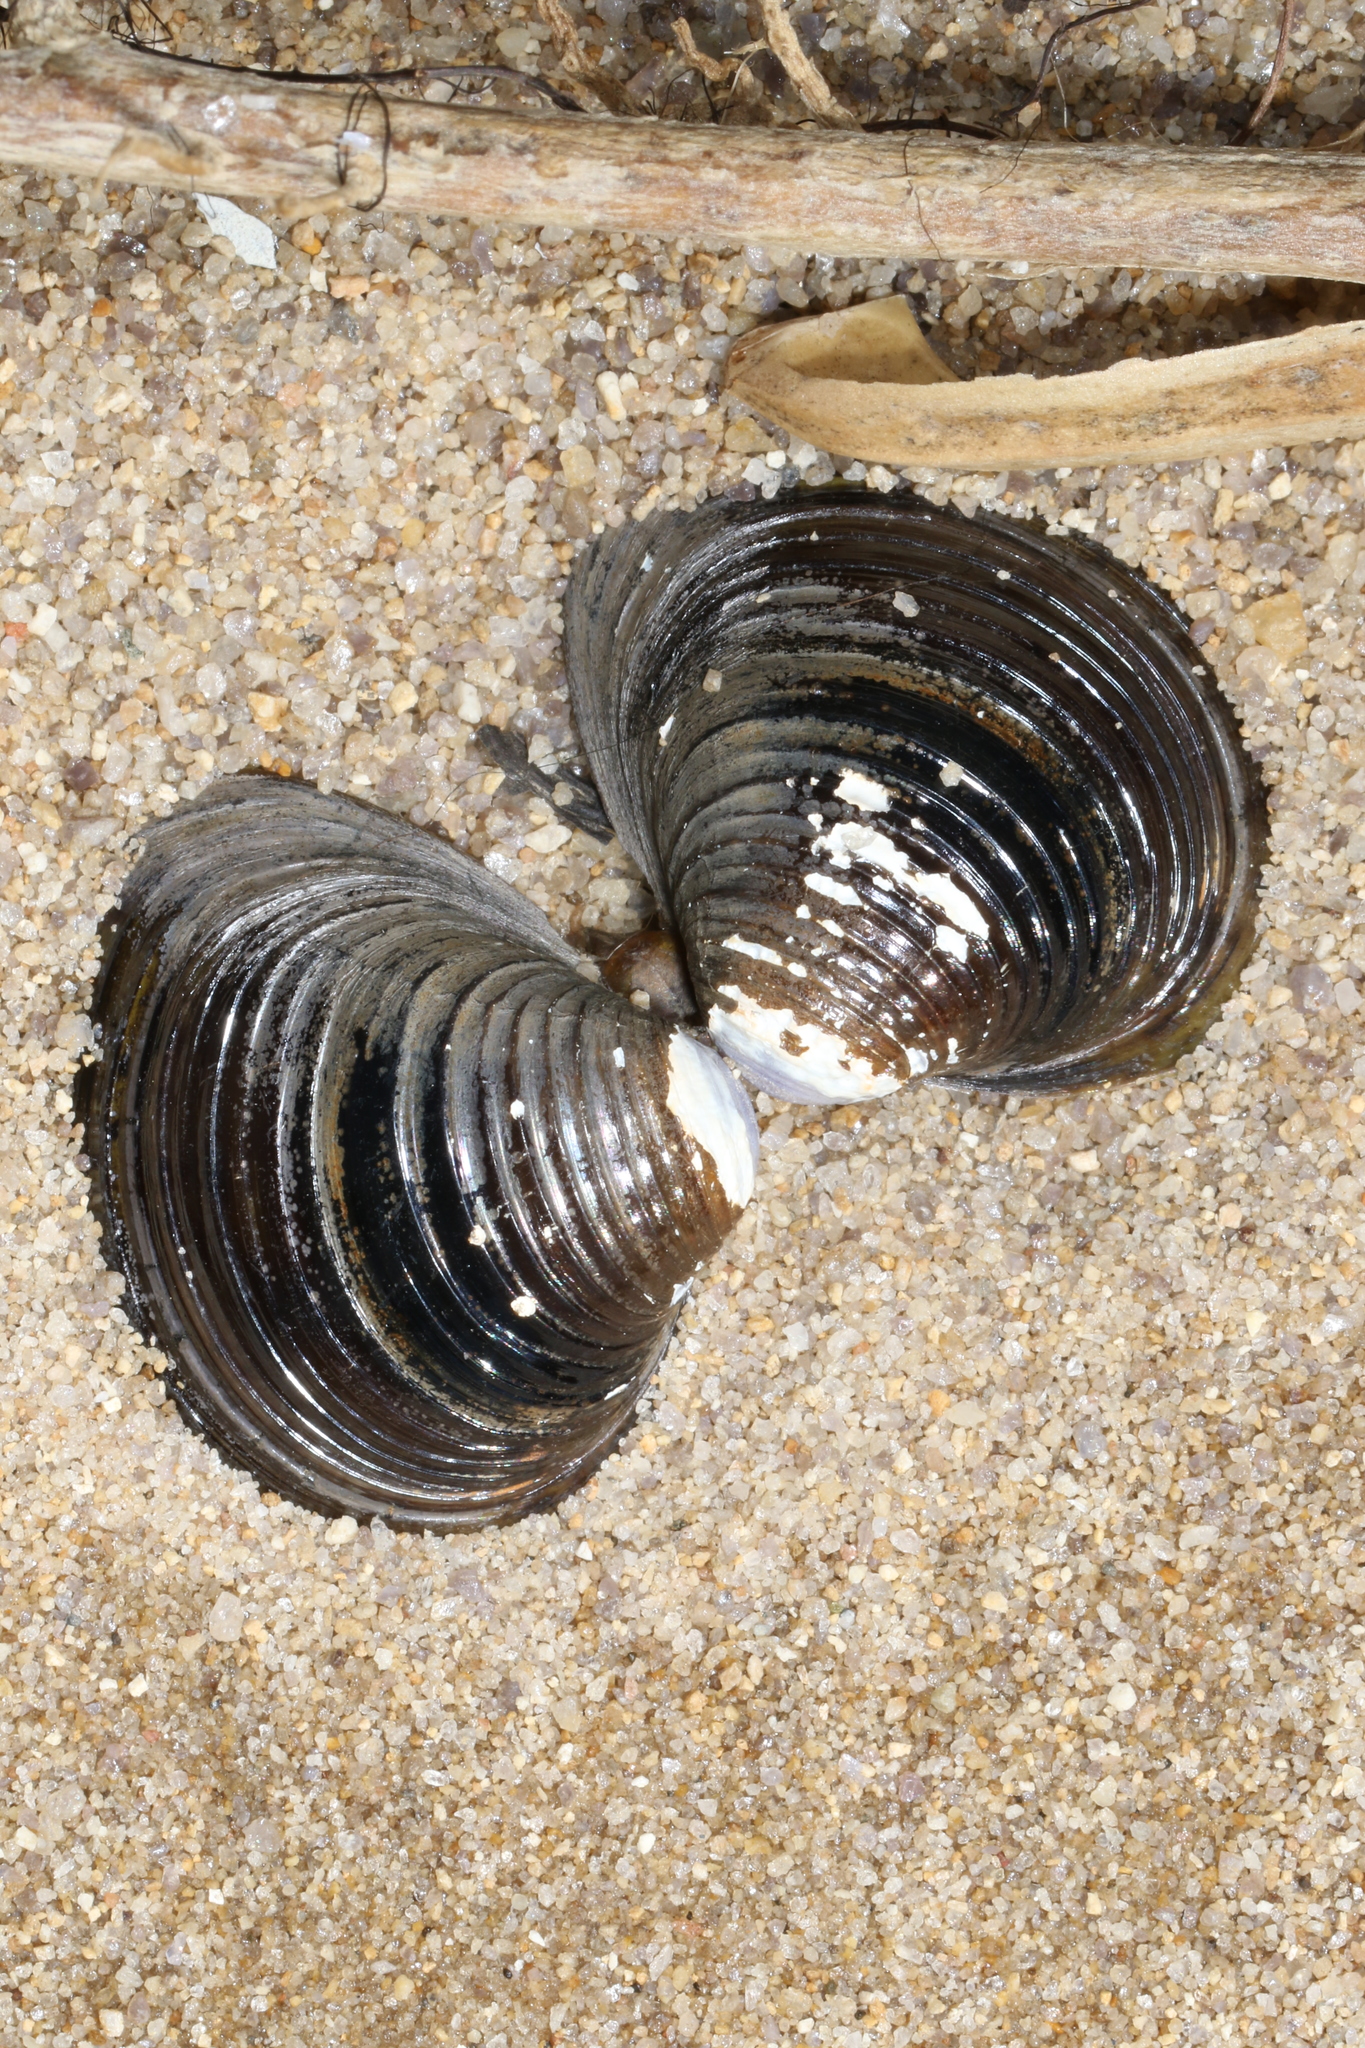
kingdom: Animalia
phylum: Mollusca
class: Bivalvia
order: Venerida
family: Cyrenidae
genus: Corbicula
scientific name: Corbicula fluminea
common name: Asian clam
